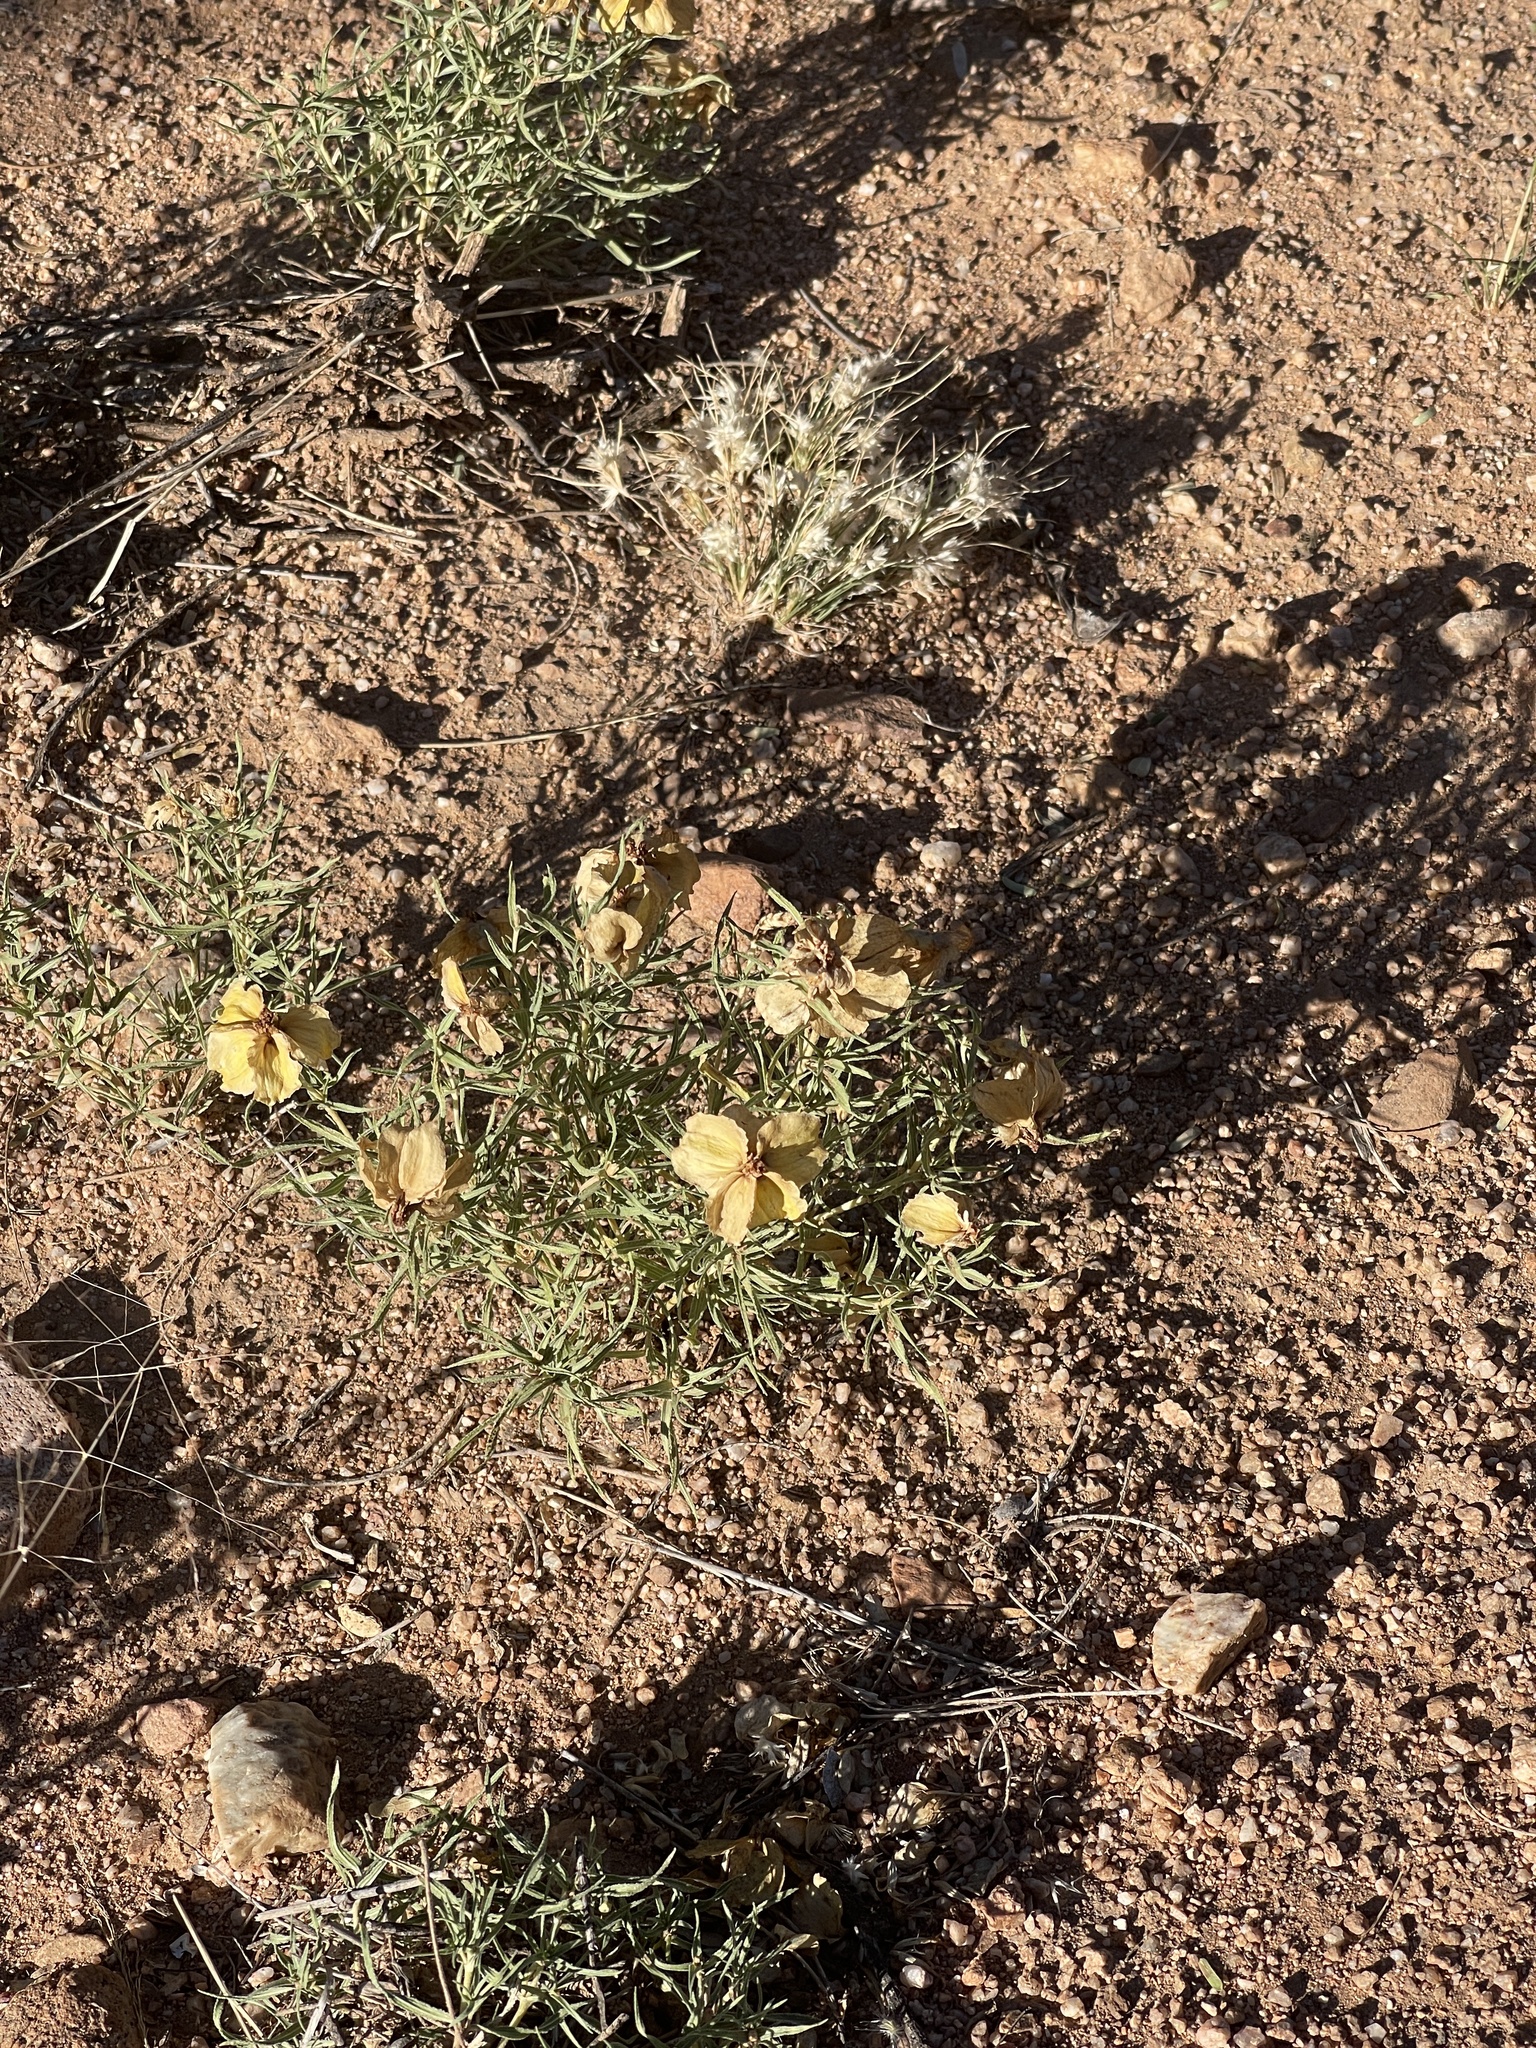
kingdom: Plantae
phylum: Tracheophyta
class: Magnoliopsida
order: Asterales
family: Asteraceae
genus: Zinnia
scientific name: Zinnia grandiflora
